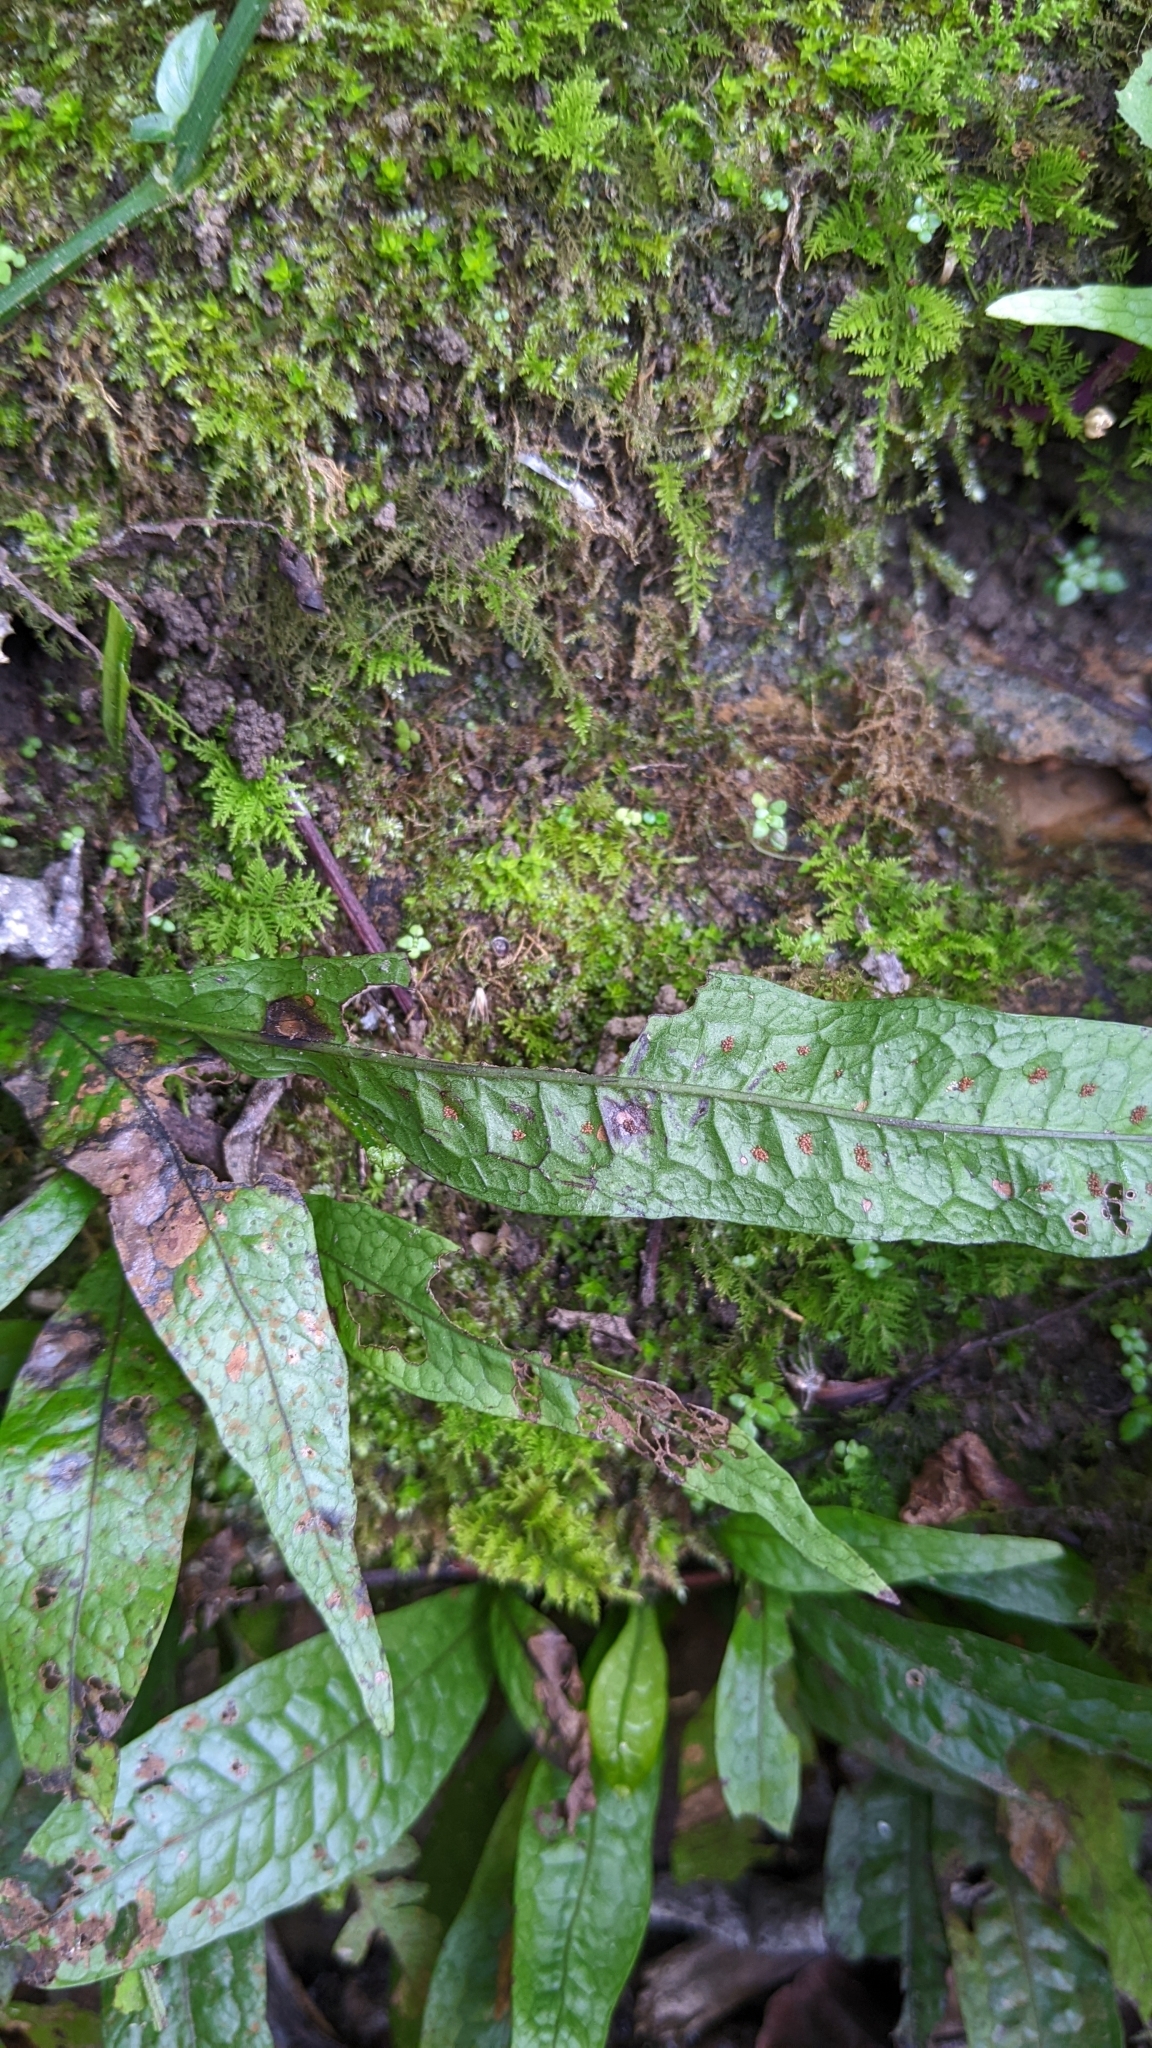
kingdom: Plantae
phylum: Tracheophyta
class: Polypodiopsida
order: Polypodiales
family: Polypodiaceae
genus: Leptochilus
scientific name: Leptochilus pteropus
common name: Java fern
